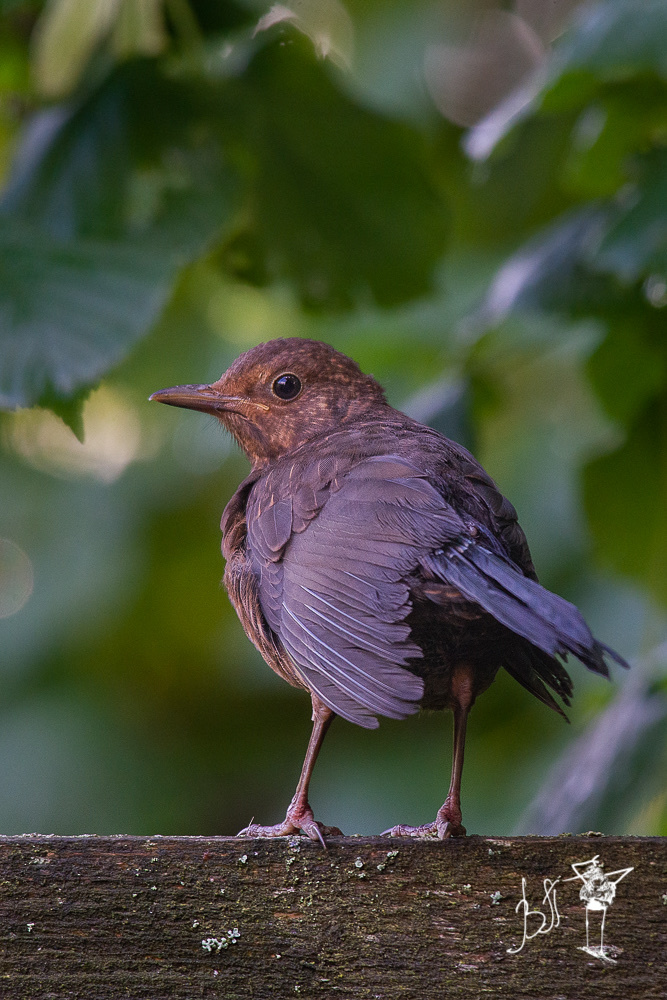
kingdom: Animalia
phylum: Chordata
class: Aves
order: Passeriformes
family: Turdidae
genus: Turdus
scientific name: Turdus merula
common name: Common blackbird
